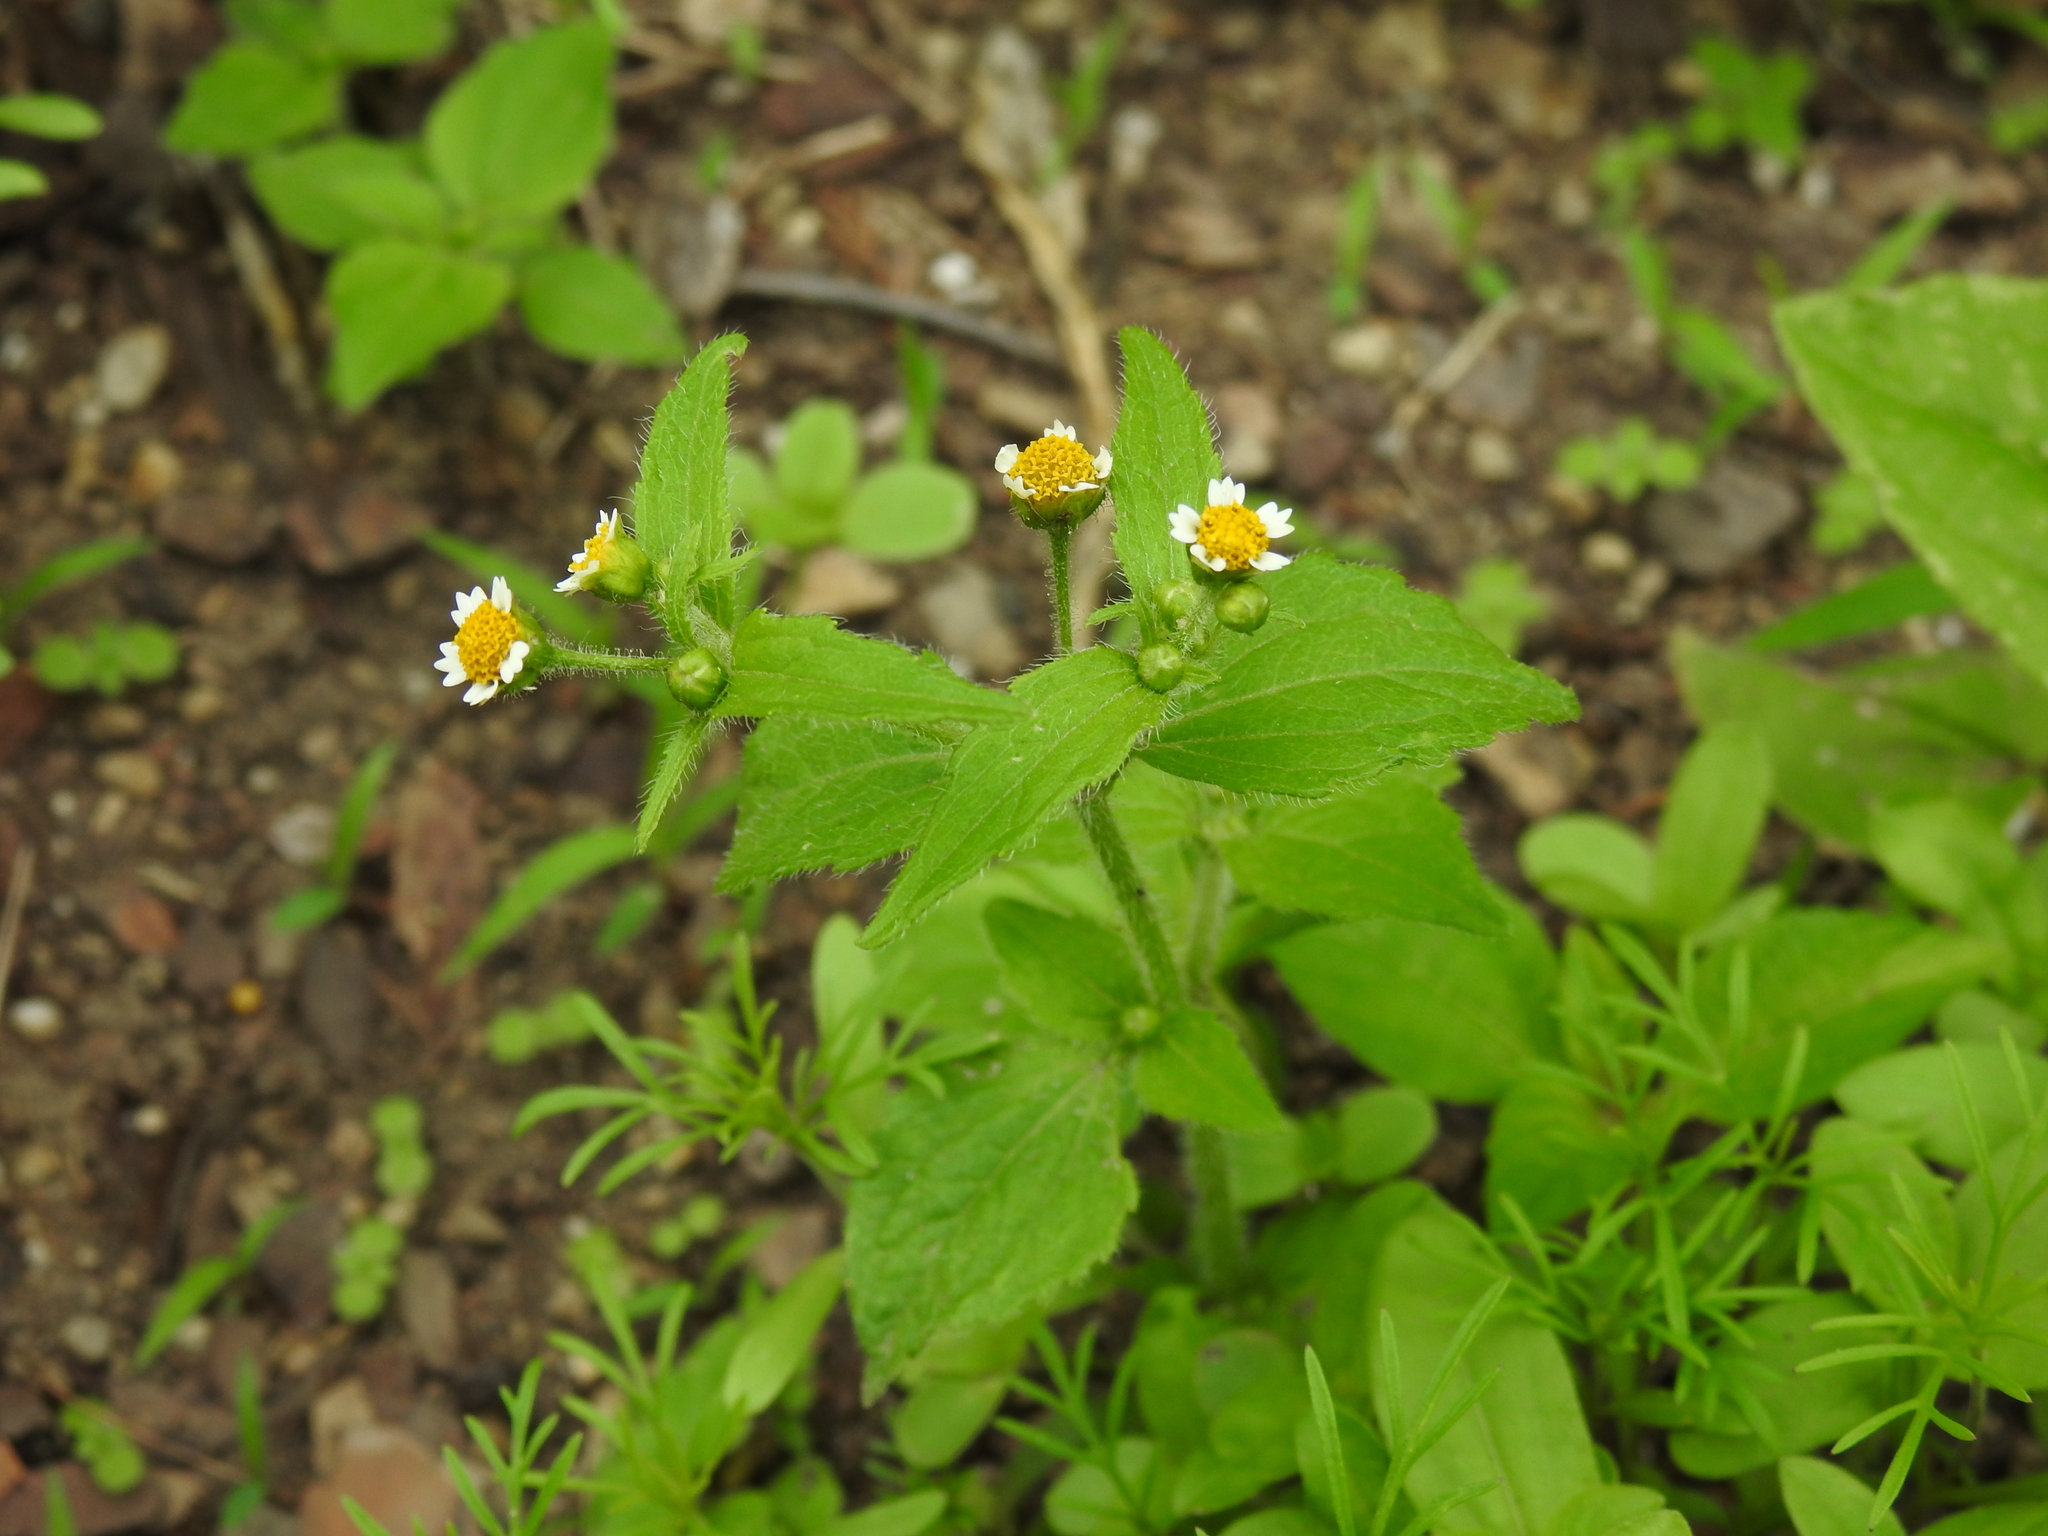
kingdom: Plantae
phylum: Tracheophyta
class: Magnoliopsida
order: Asterales
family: Asteraceae
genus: Galinsoga
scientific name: Galinsoga quadriradiata
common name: Shaggy soldier
